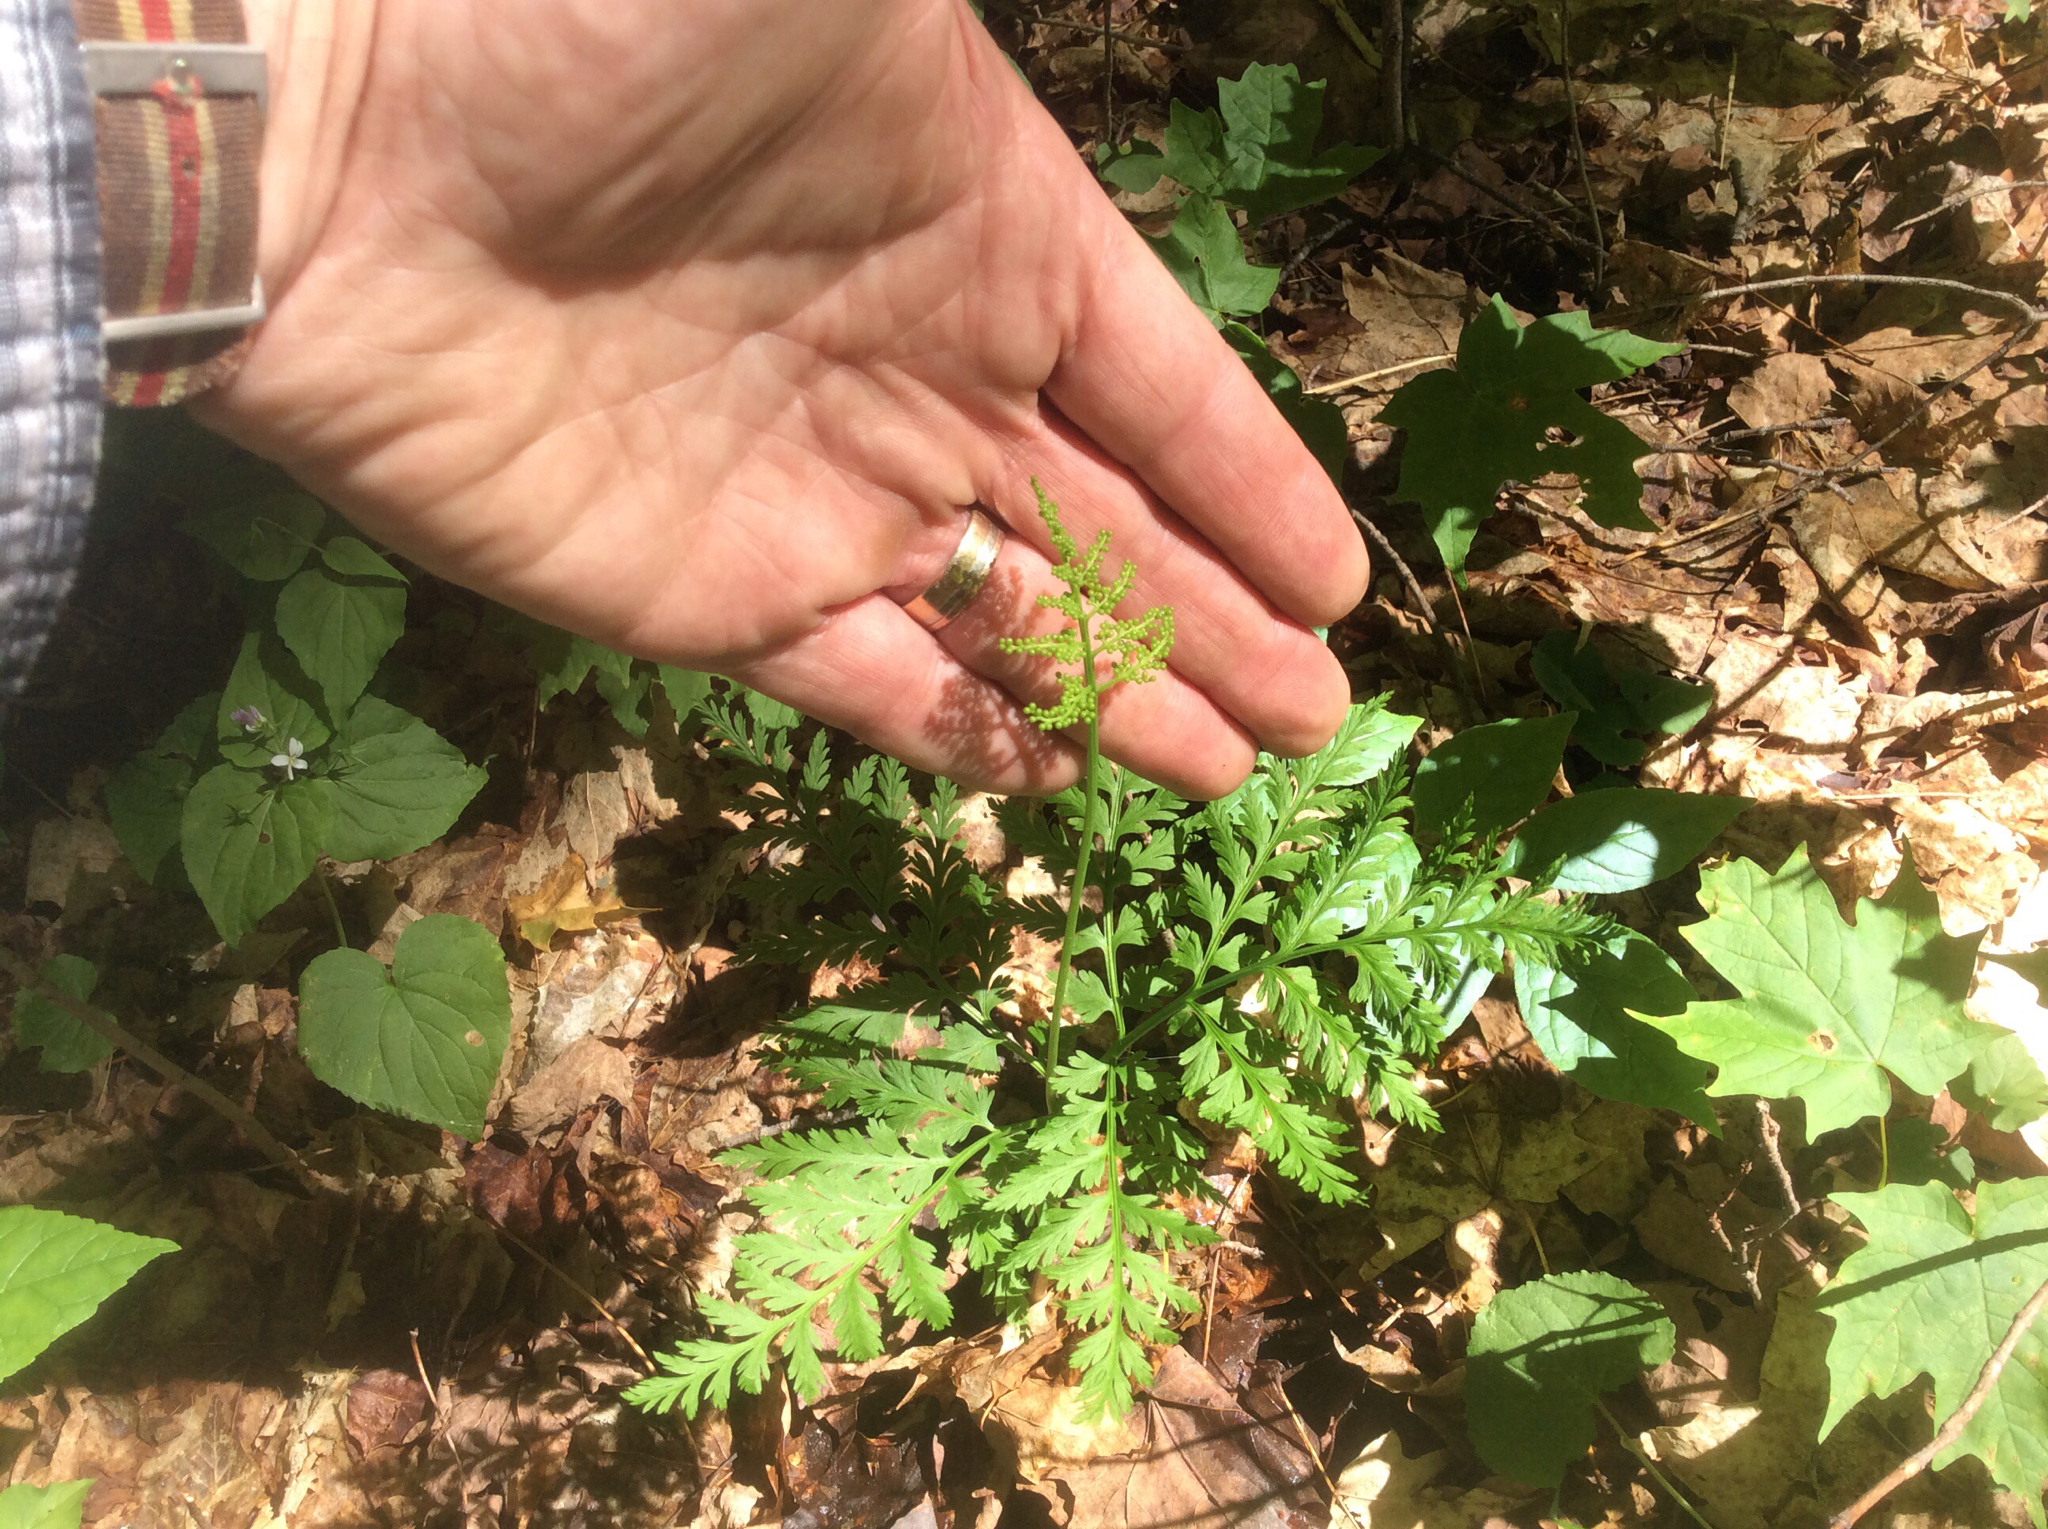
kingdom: Plantae
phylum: Tracheophyta
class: Polypodiopsida
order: Ophioglossales
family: Ophioglossaceae
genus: Botrypus
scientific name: Botrypus virginianus
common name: Common grapefern
